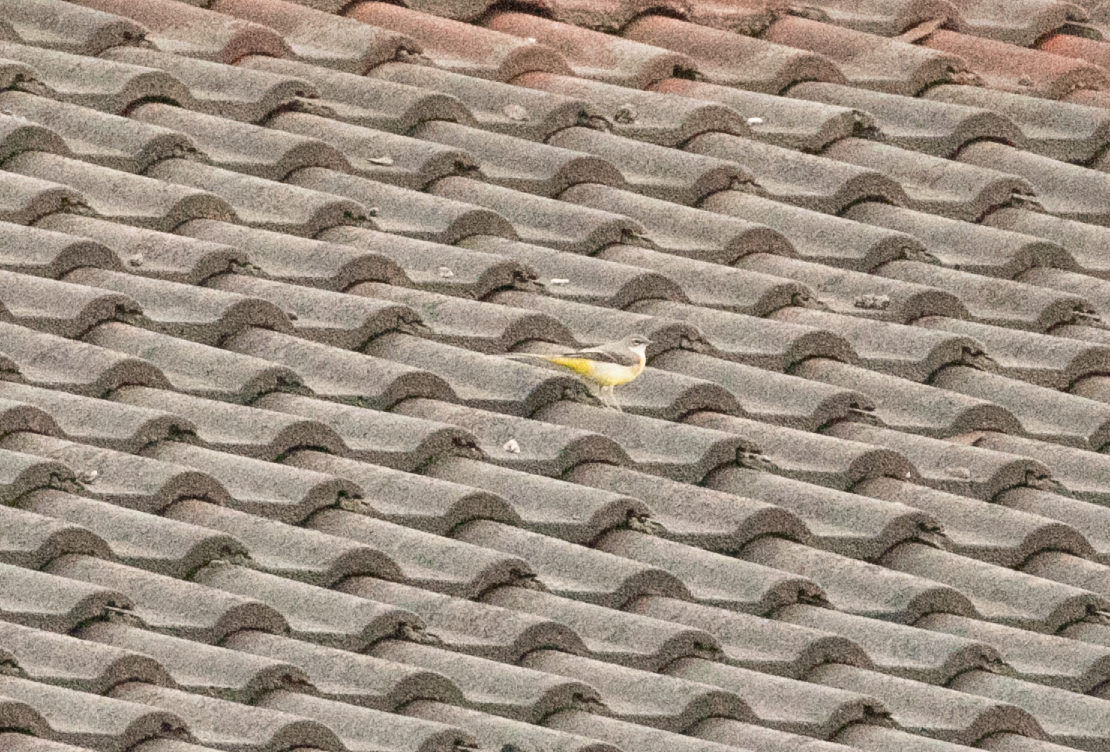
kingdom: Animalia
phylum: Chordata
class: Aves
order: Passeriformes
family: Motacillidae
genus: Motacilla
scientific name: Motacilla cinerea
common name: Grey wagtail
